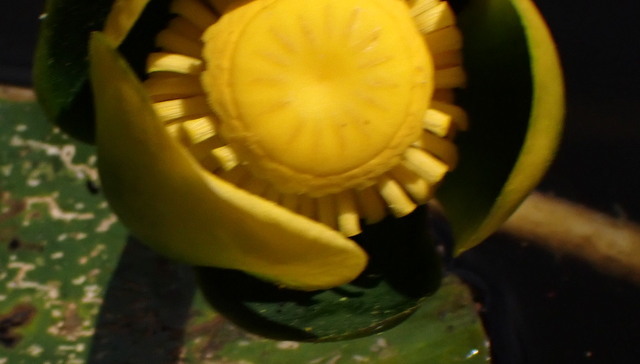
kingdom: Plantae
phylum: Tracheophyta
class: Magnoliopsida
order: Nymphaeales
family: Nymphaeaceae
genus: Nuphar
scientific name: Nuphar advena
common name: Spatter-dock
